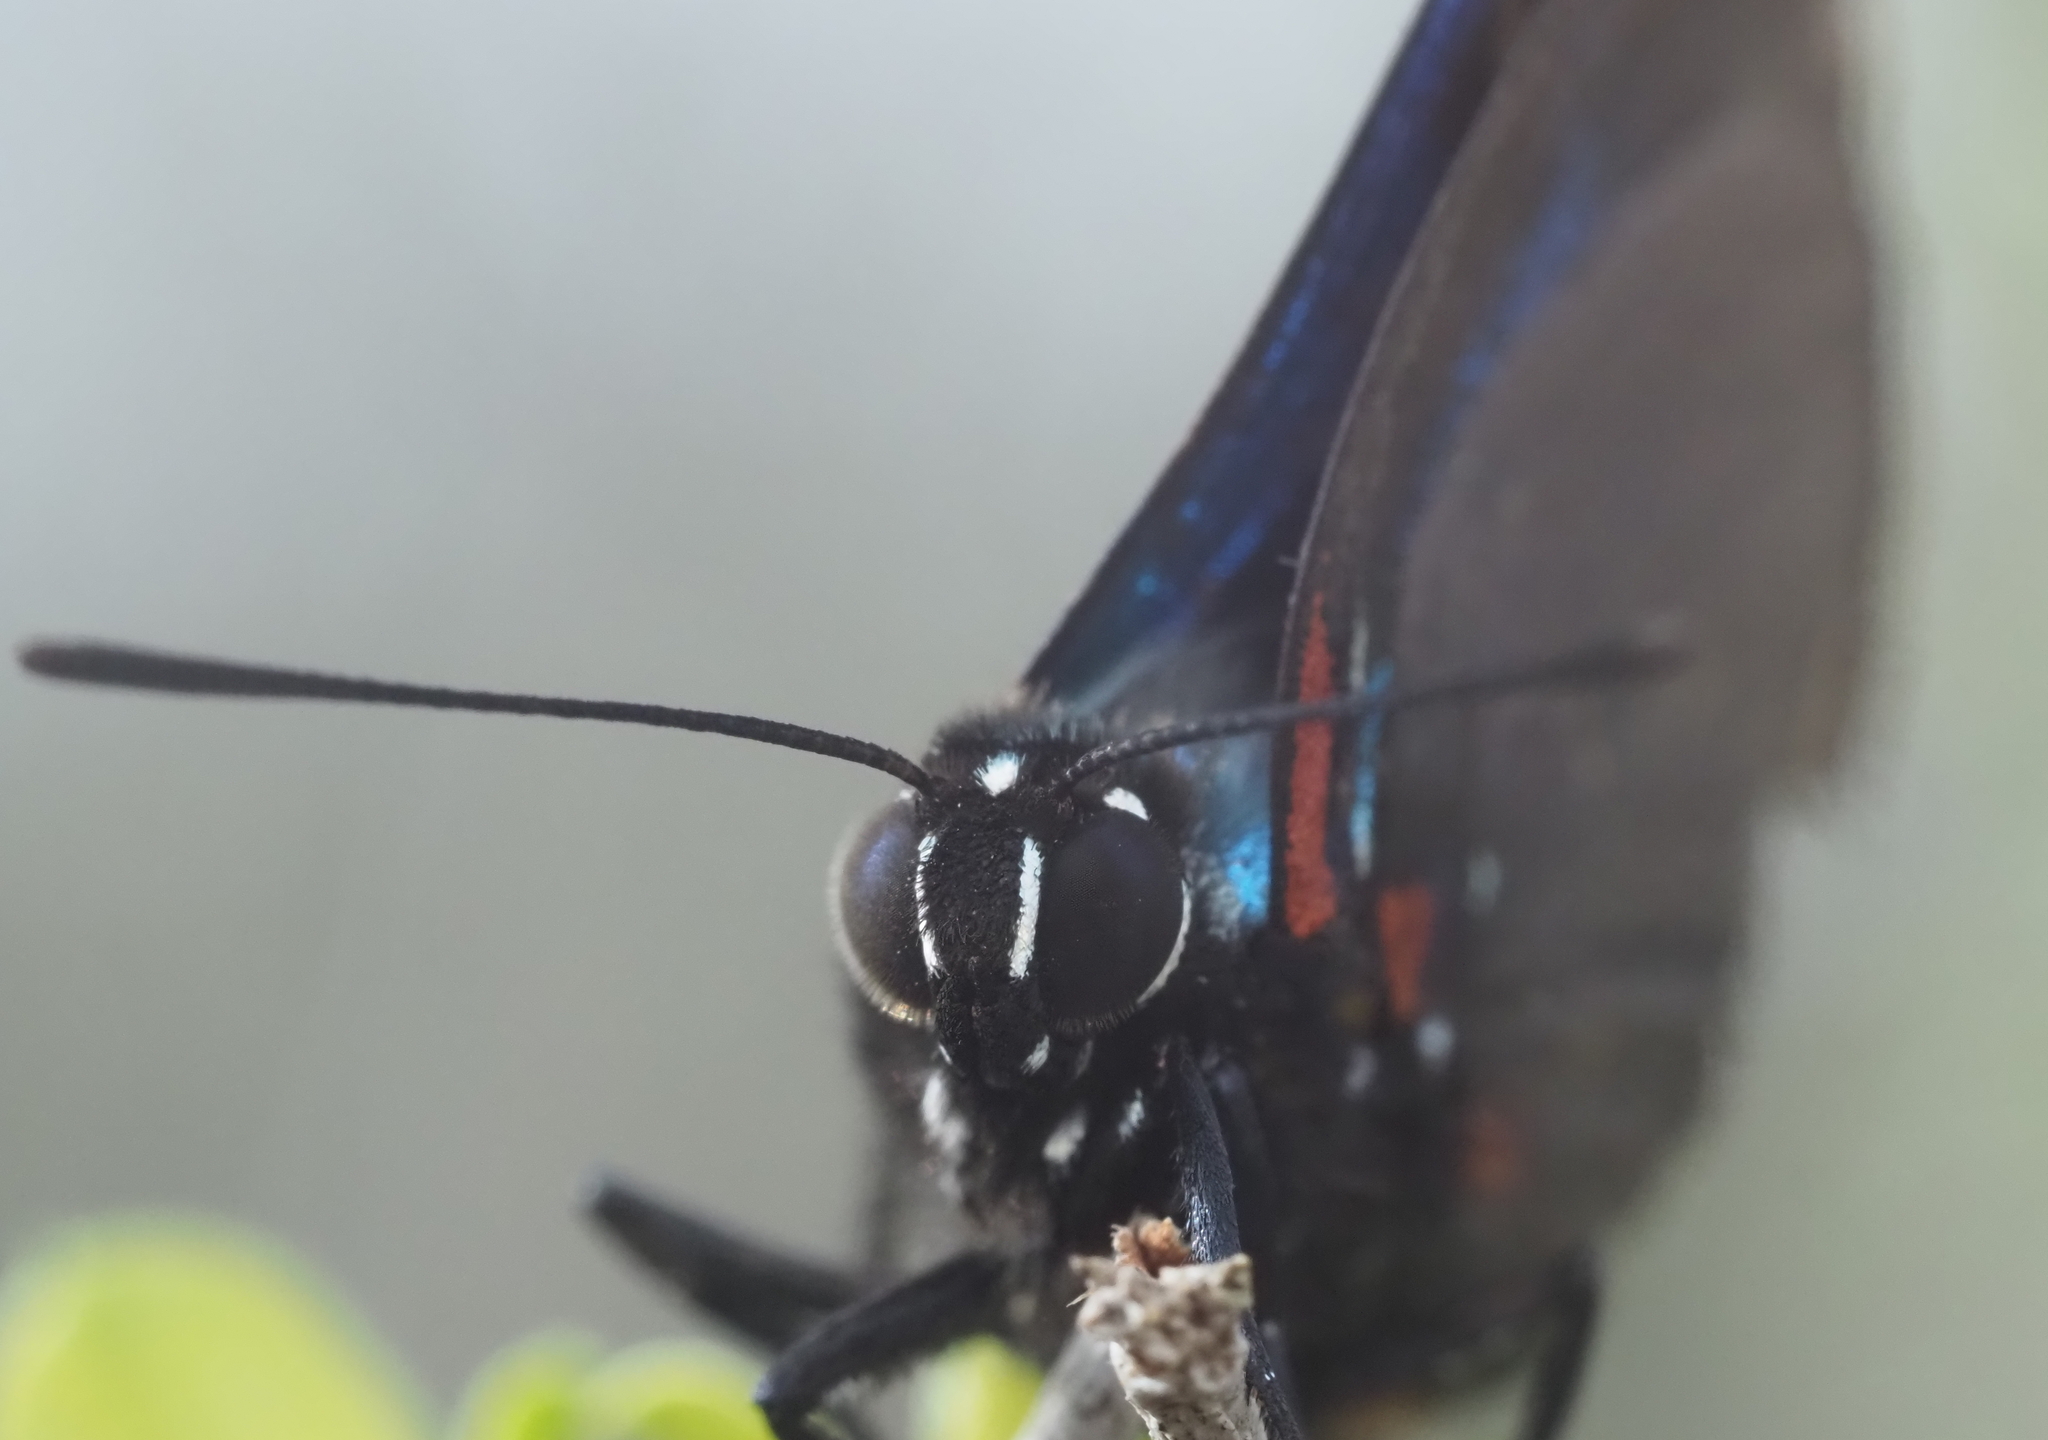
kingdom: Animalia
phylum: Arthropoda
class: Insecta
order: Lepidoptera
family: Lycaenidae
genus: Atlides
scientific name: Atlides halesus
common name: Great purple hairstreak
